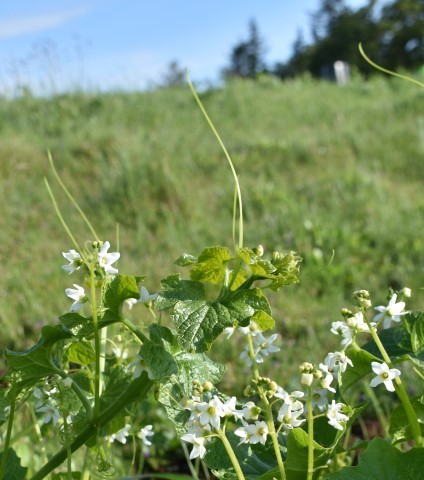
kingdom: Plantae
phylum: Tracheophyta
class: Magnoliopsida
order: Cucurbitales
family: Cucurbitaceae
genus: Marah
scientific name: Marah oregana
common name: Coastal manroot
